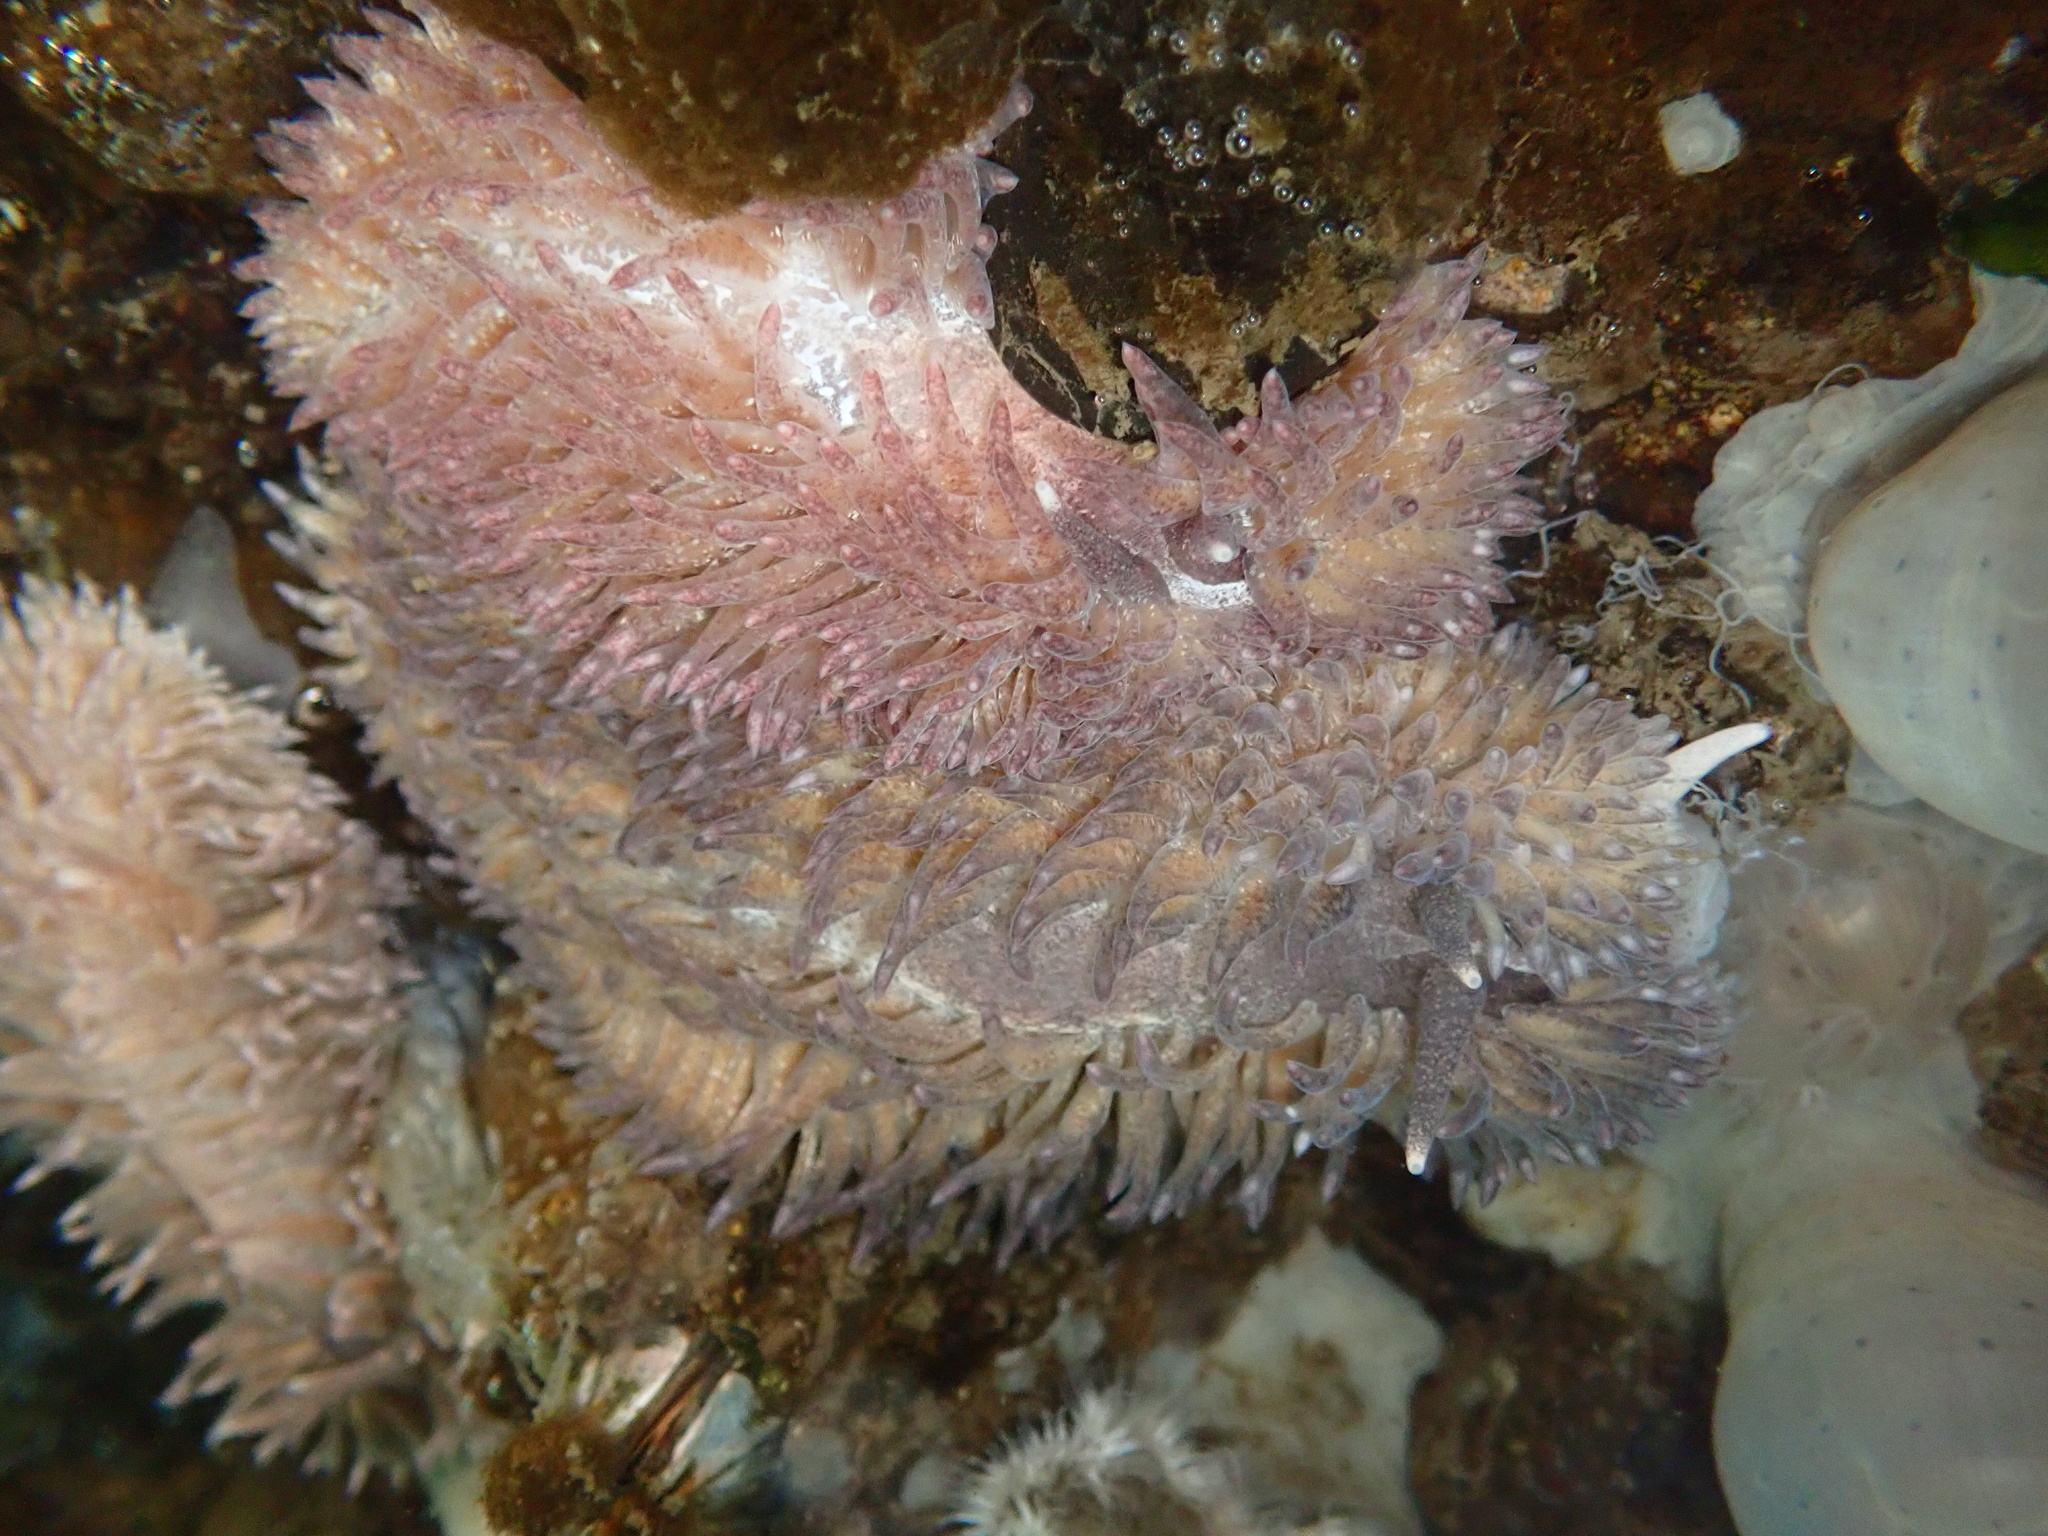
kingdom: Animalia
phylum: Mollusca
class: Gastropoda
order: Nudibranchia
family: Aeolidiidae
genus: Aeolidia
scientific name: Aeolidia papillosa
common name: Common grey sea slug
